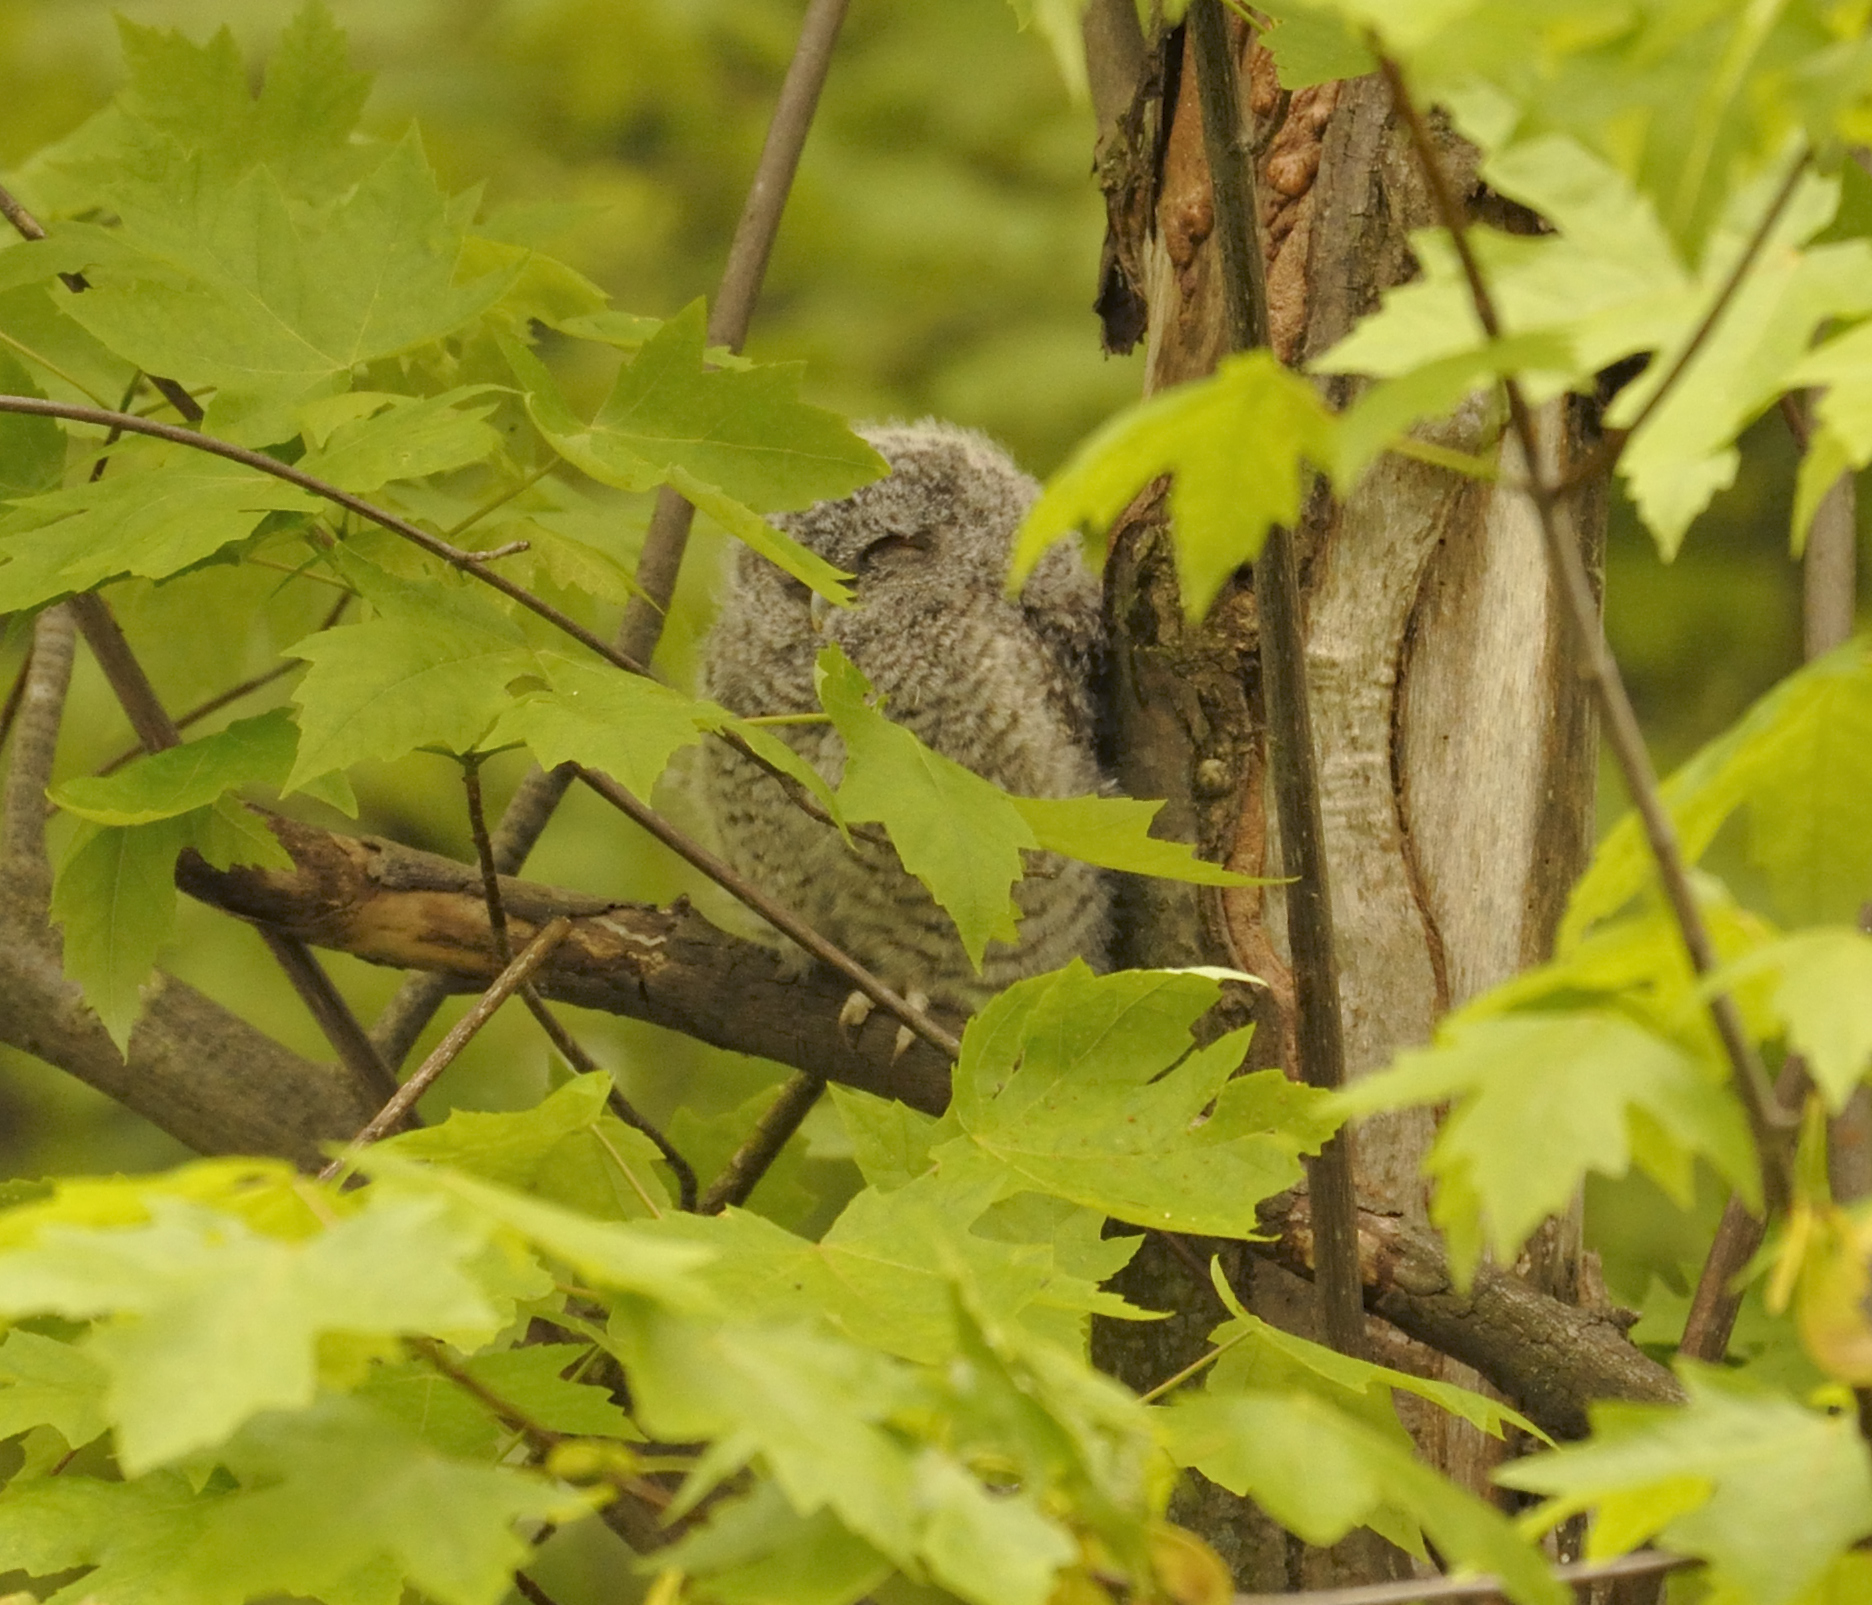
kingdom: Animalia
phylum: Chordata
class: Aves
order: Strigiformes
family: Strigidae
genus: Megascops
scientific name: Megascops asio
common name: Eastern screech-owl
